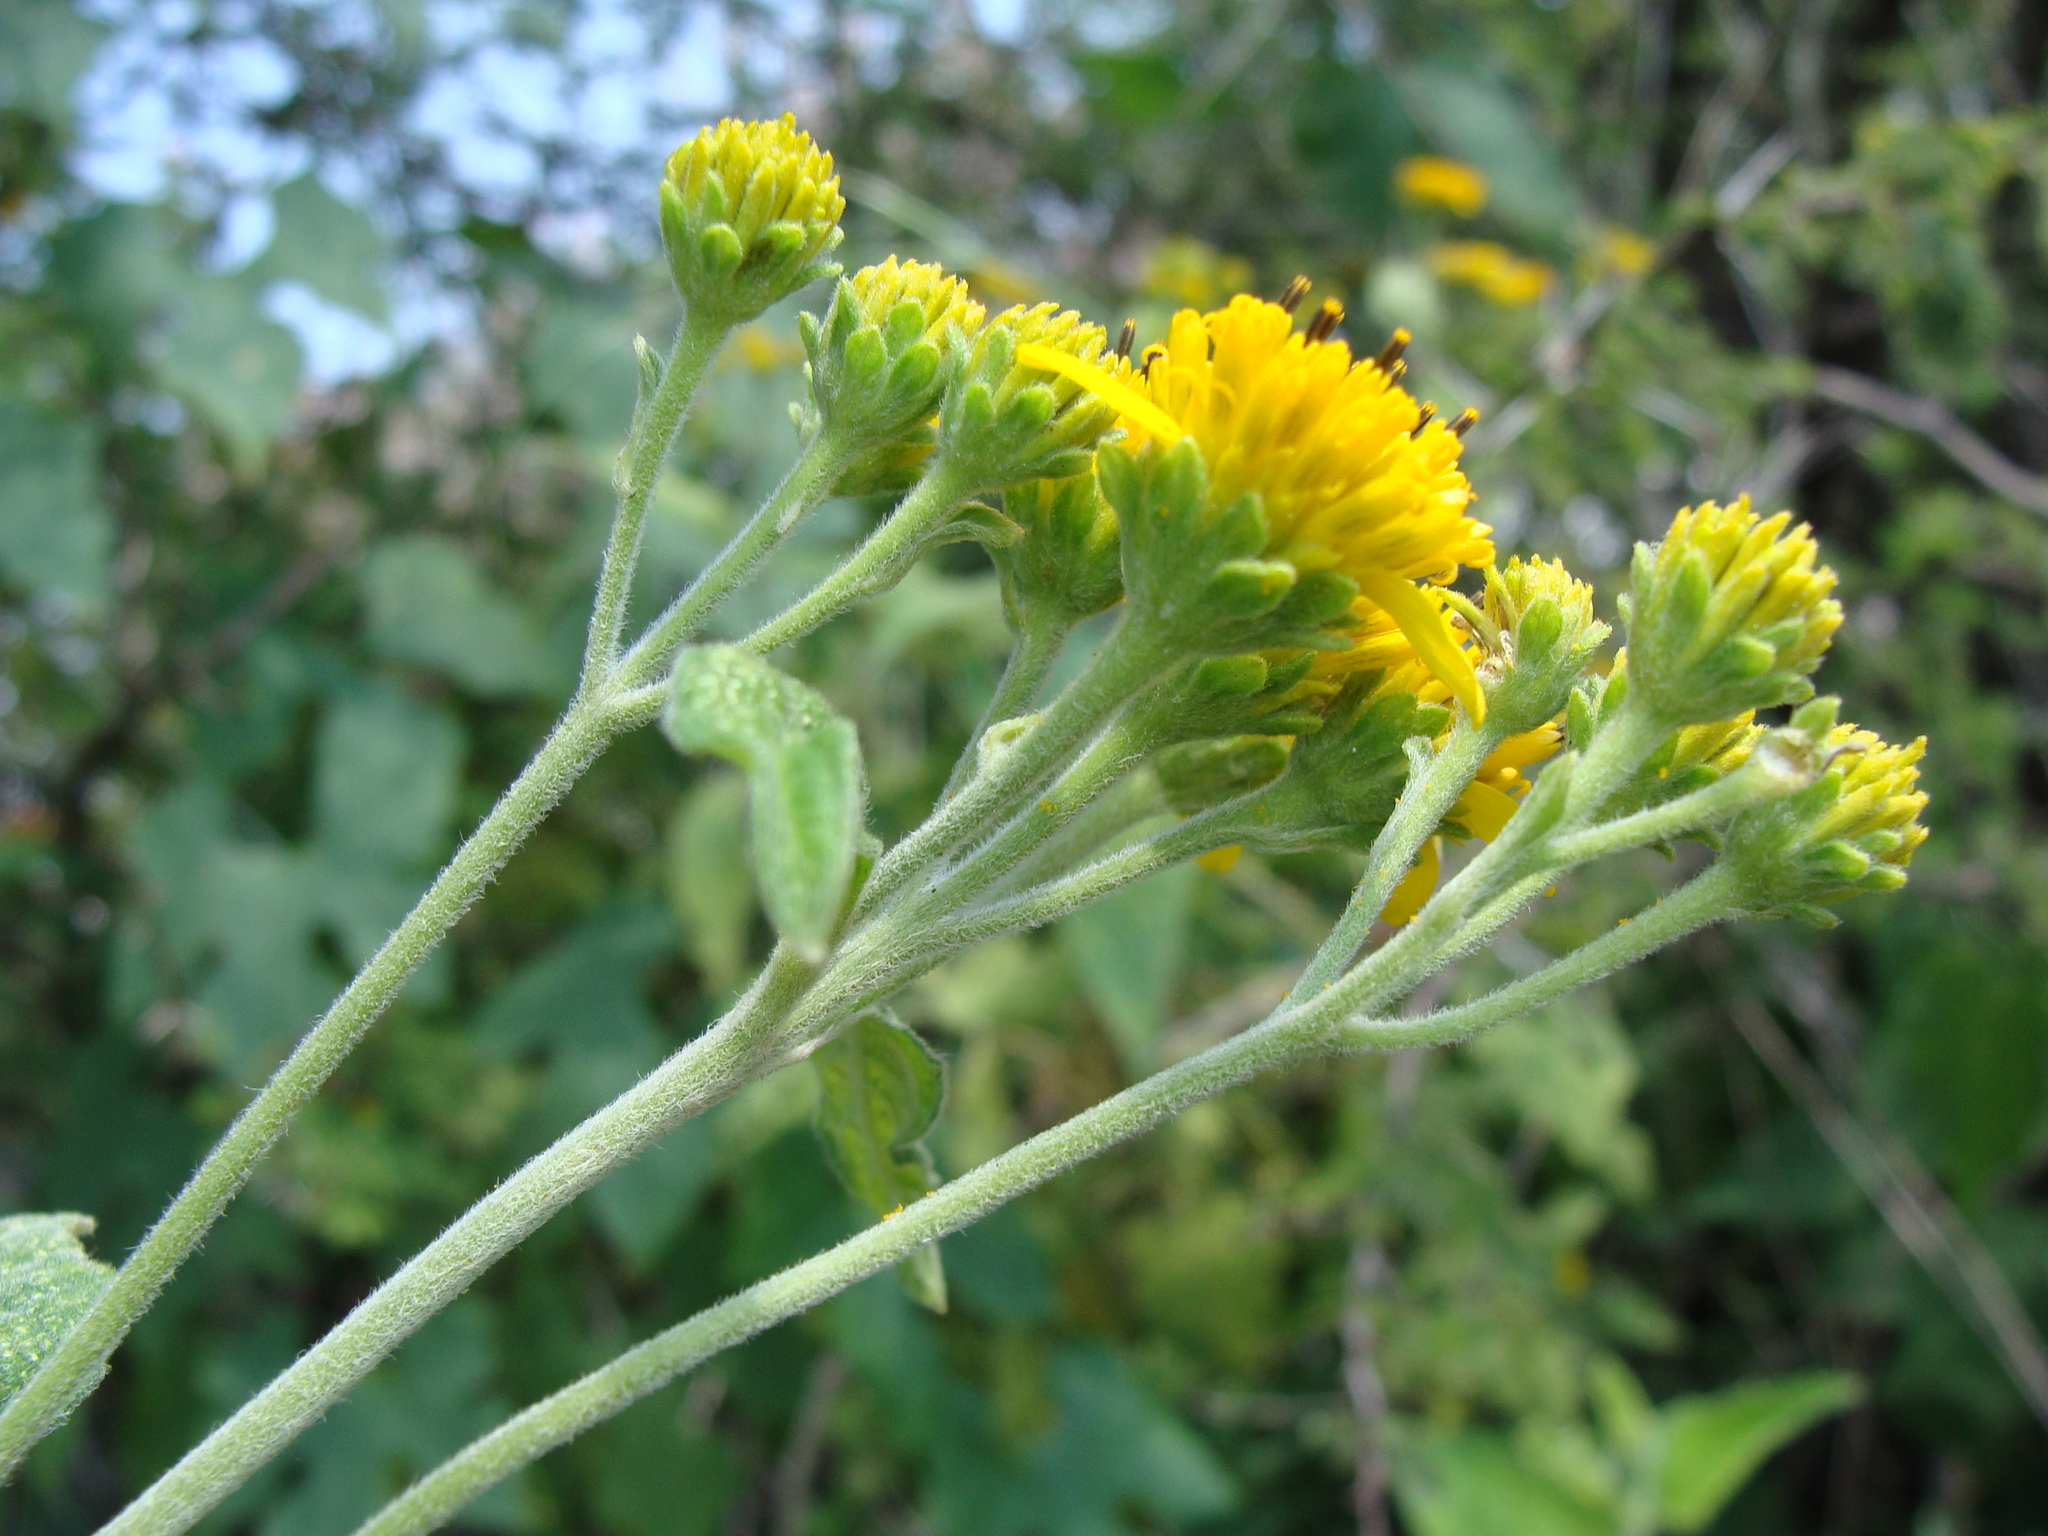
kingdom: Plantae
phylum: Tracheophyta
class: Magnoliopsida
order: Asterales
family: Asteraceae
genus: Verbesina
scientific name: Verbesina serrata
